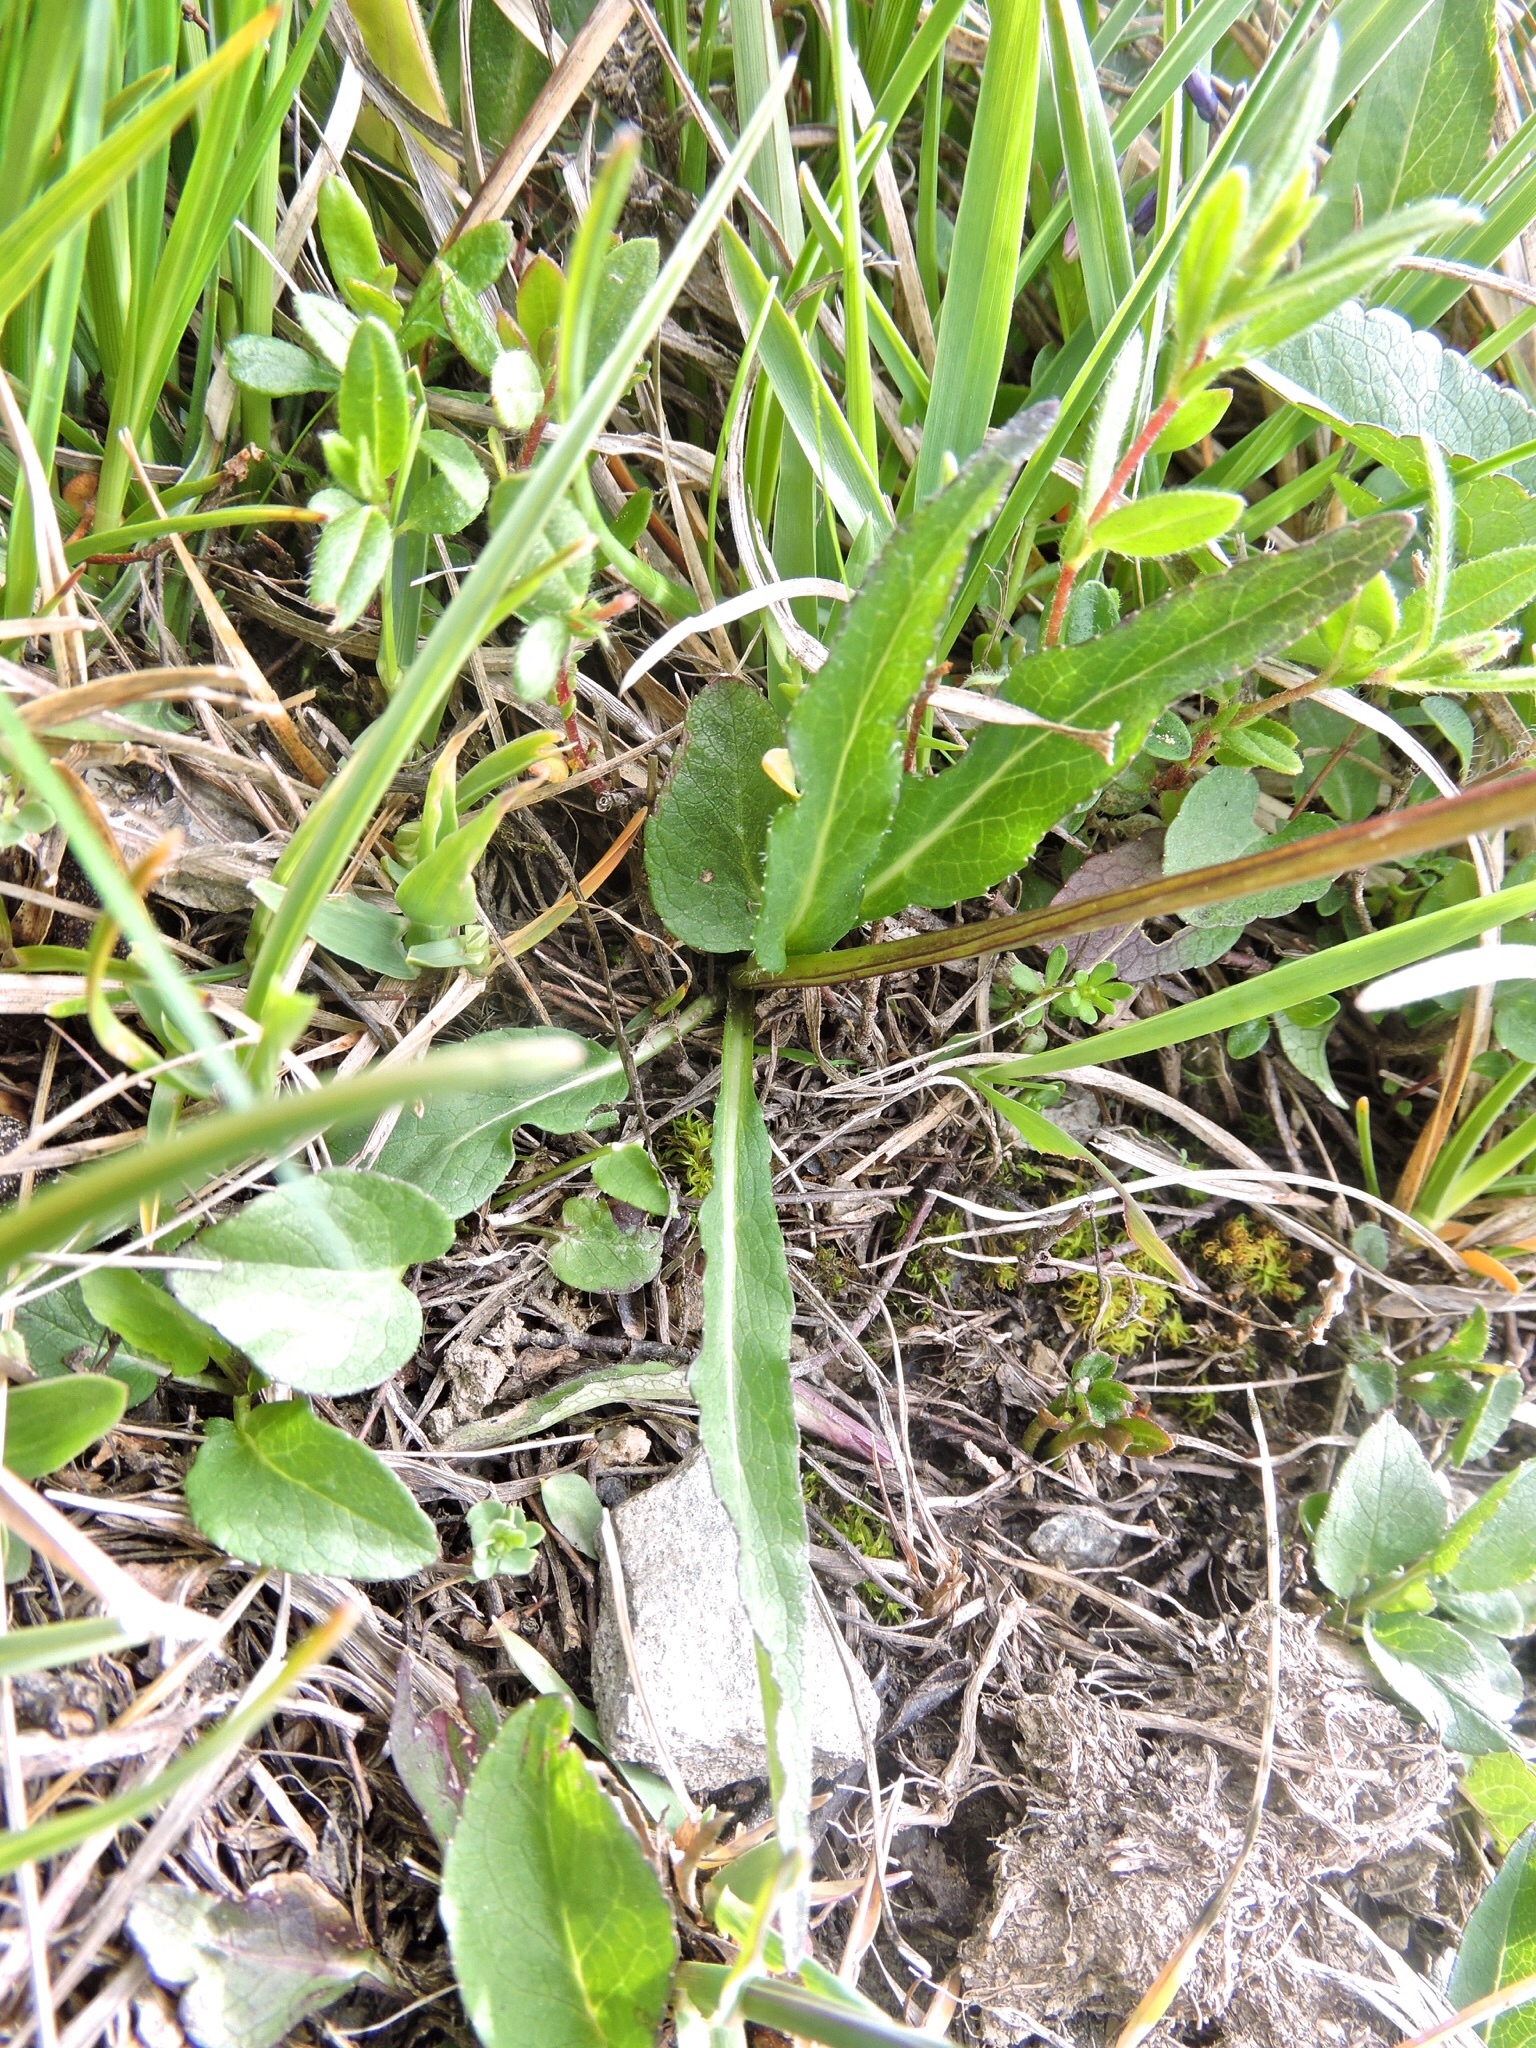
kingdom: Plantae
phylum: Tracheophyta
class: Magnoliopsida
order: Asterales
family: Campanulaceae
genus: Phyteuma
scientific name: Phyteuma orbiculare
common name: Round-headed rampion
